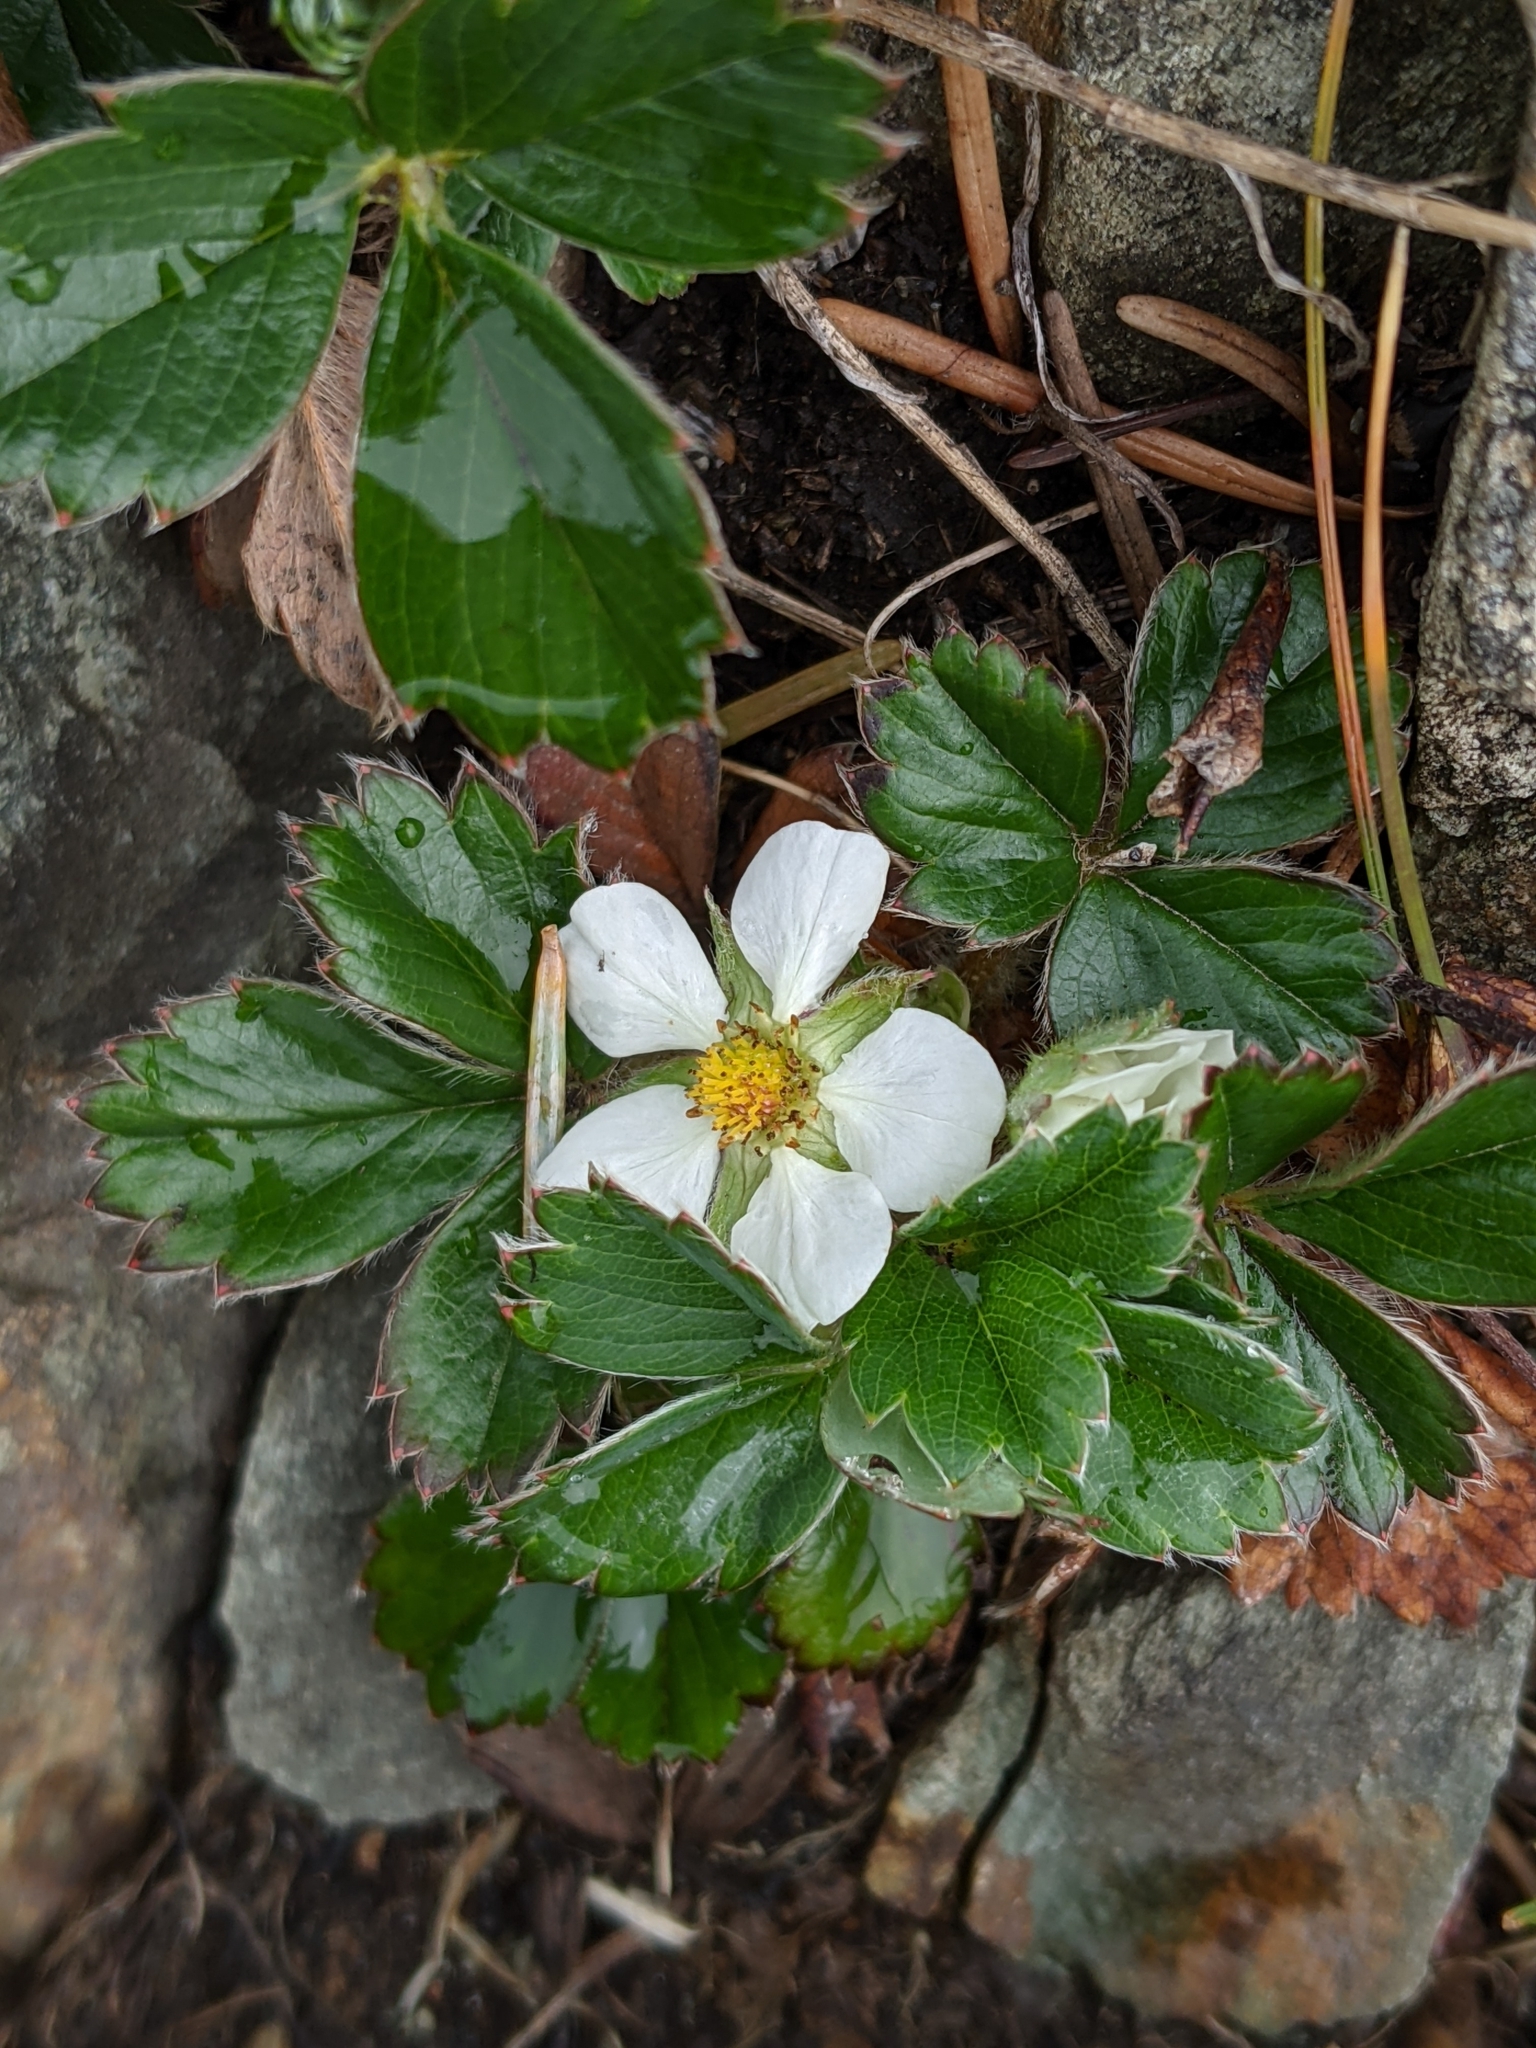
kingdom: Plantae
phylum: Tracheophyta
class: Magnoliopsida
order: Rosales
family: Rosaceae
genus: Fragaria
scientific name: Fragaria chiloensis
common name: Beach strawberry
